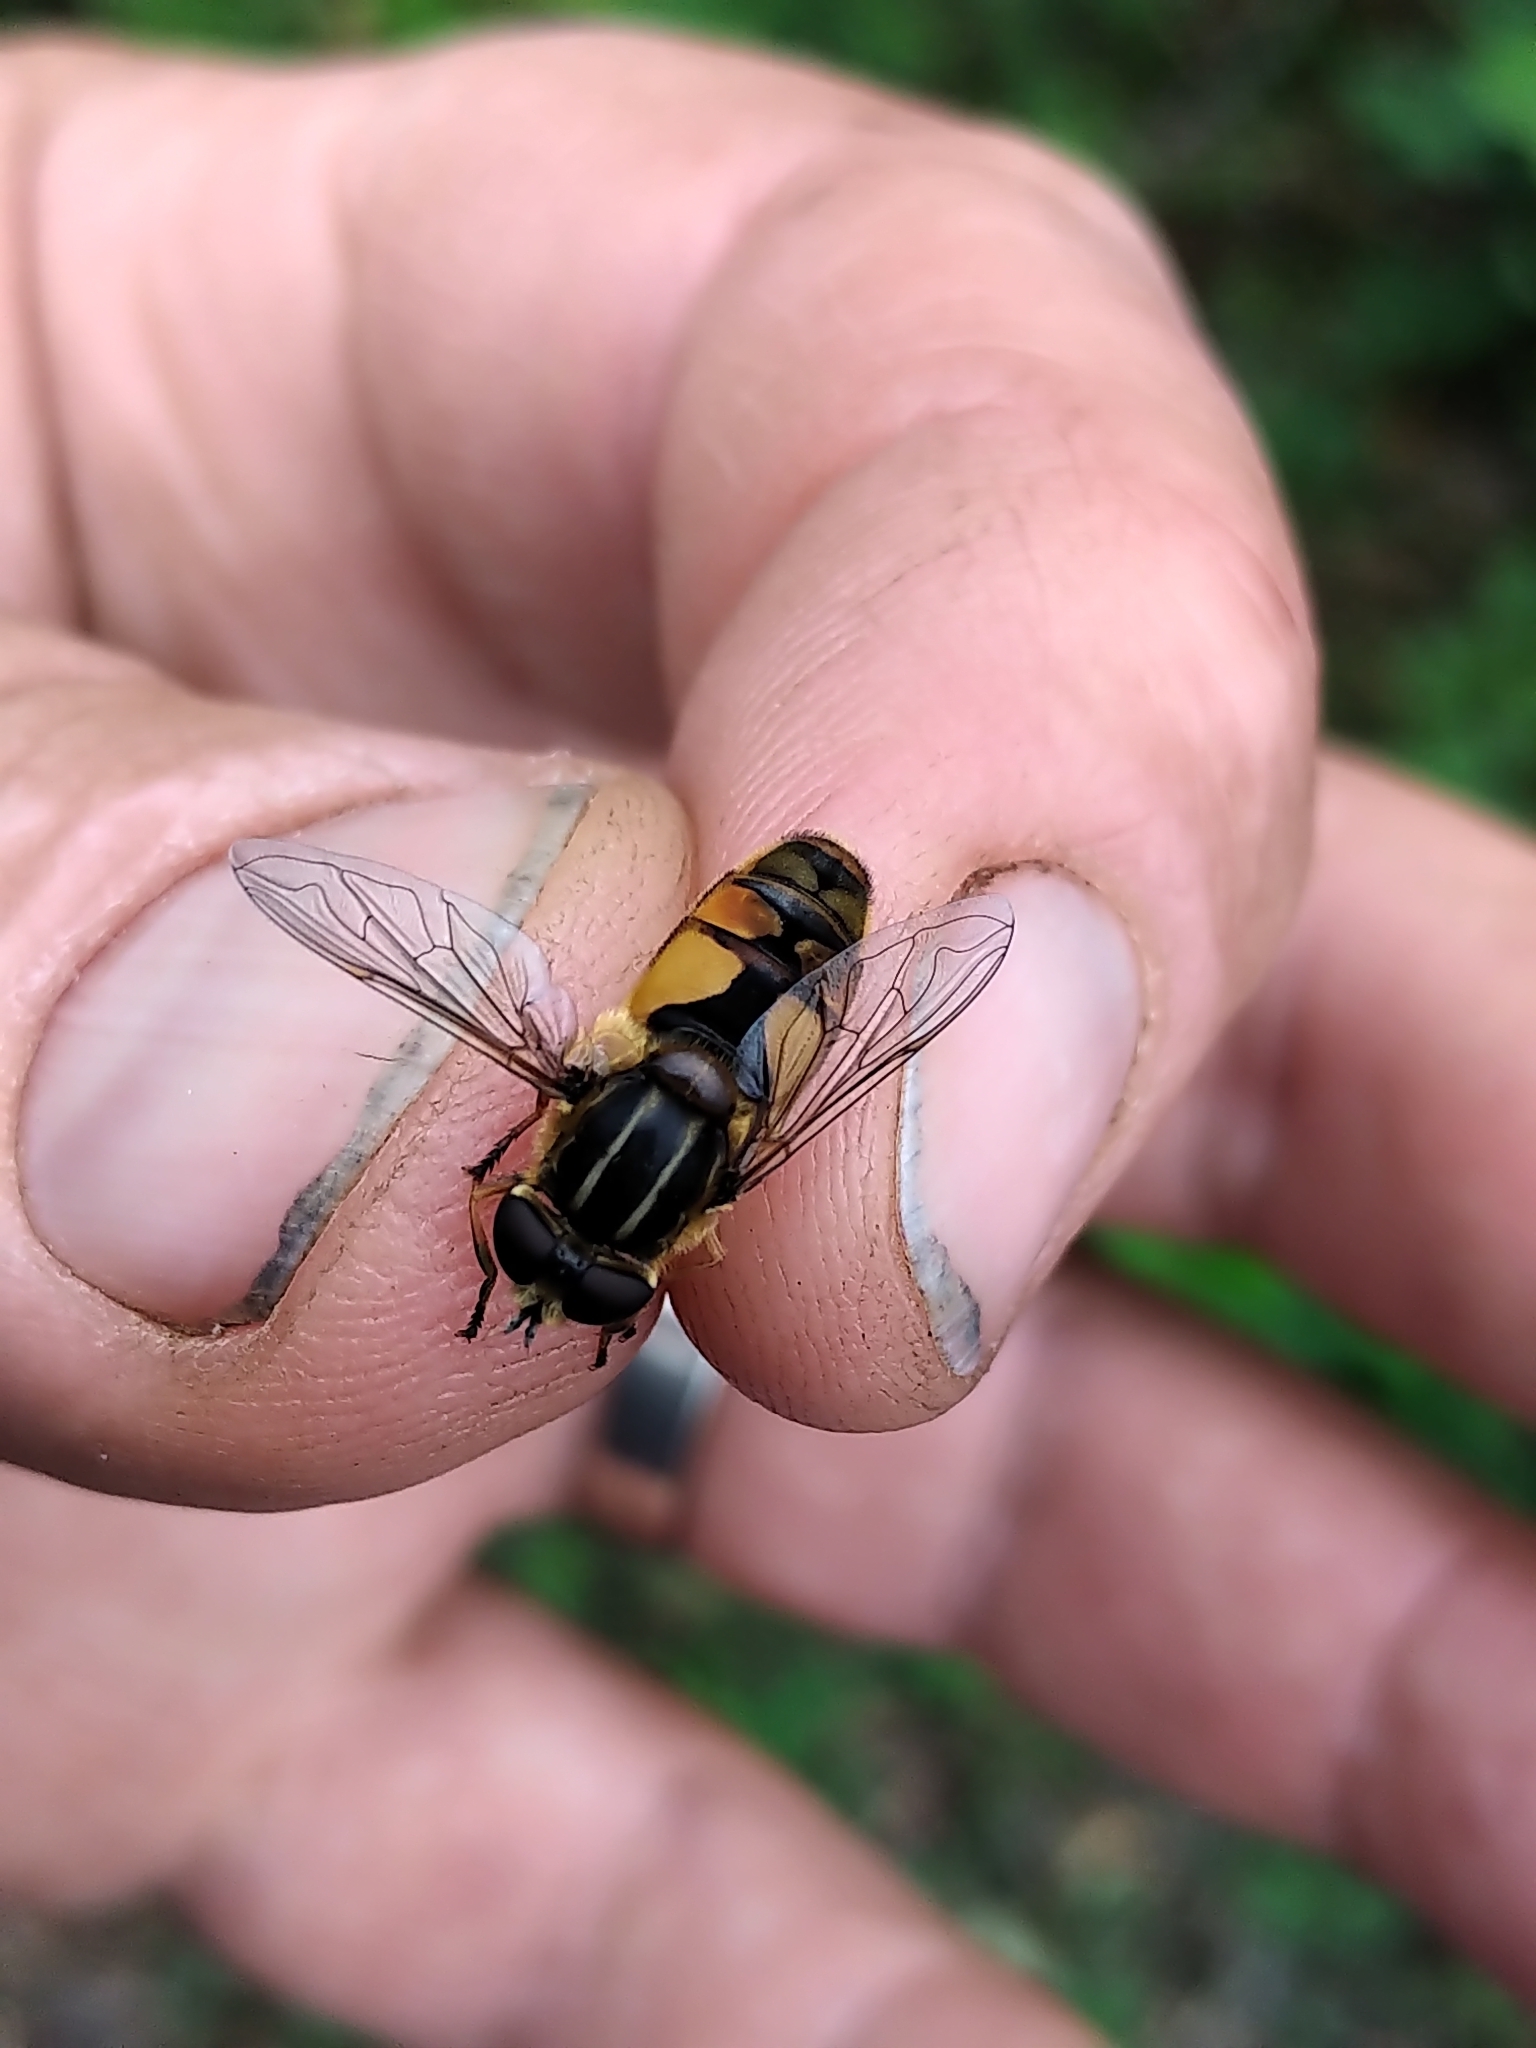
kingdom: Animalia
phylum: Arthropoda
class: Insecta
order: Diptera
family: Syrphidae
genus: Helophilus
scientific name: Helophilus hybridus
